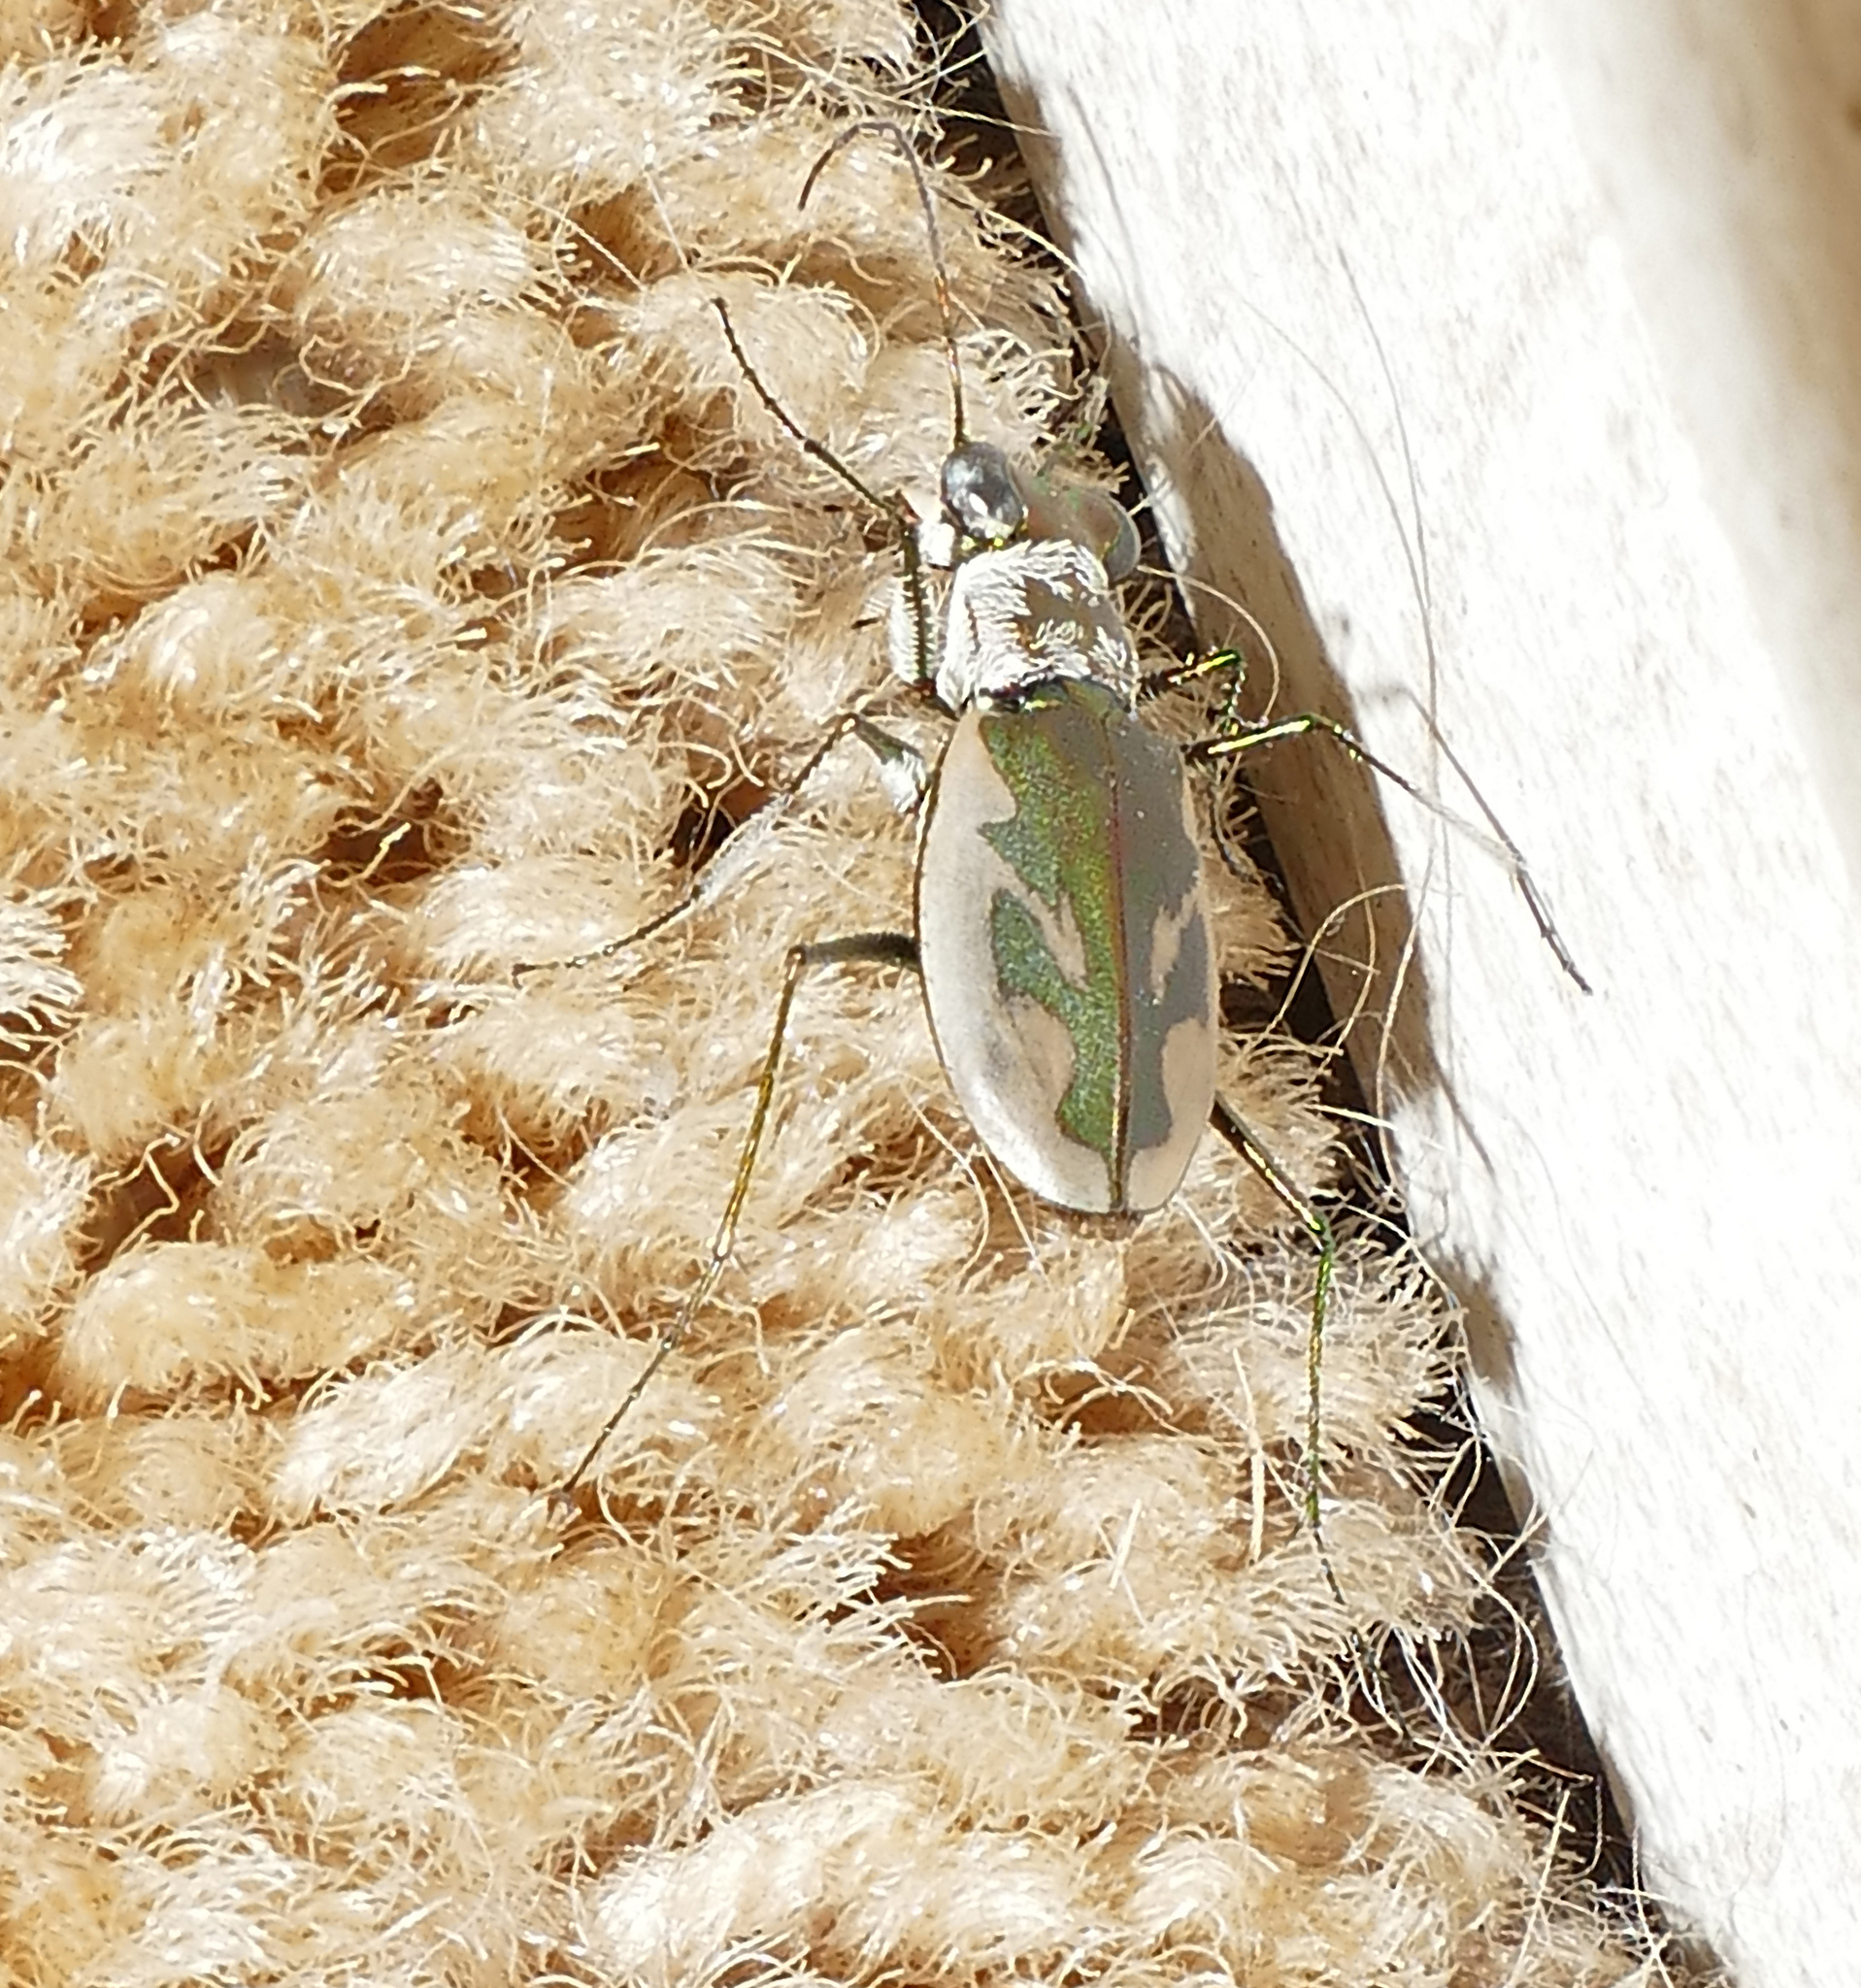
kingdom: Animalia
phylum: Arthropoda
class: Insecta
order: Coleoptera
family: Carabidae
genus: Eunota
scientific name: Eunota pamphila
